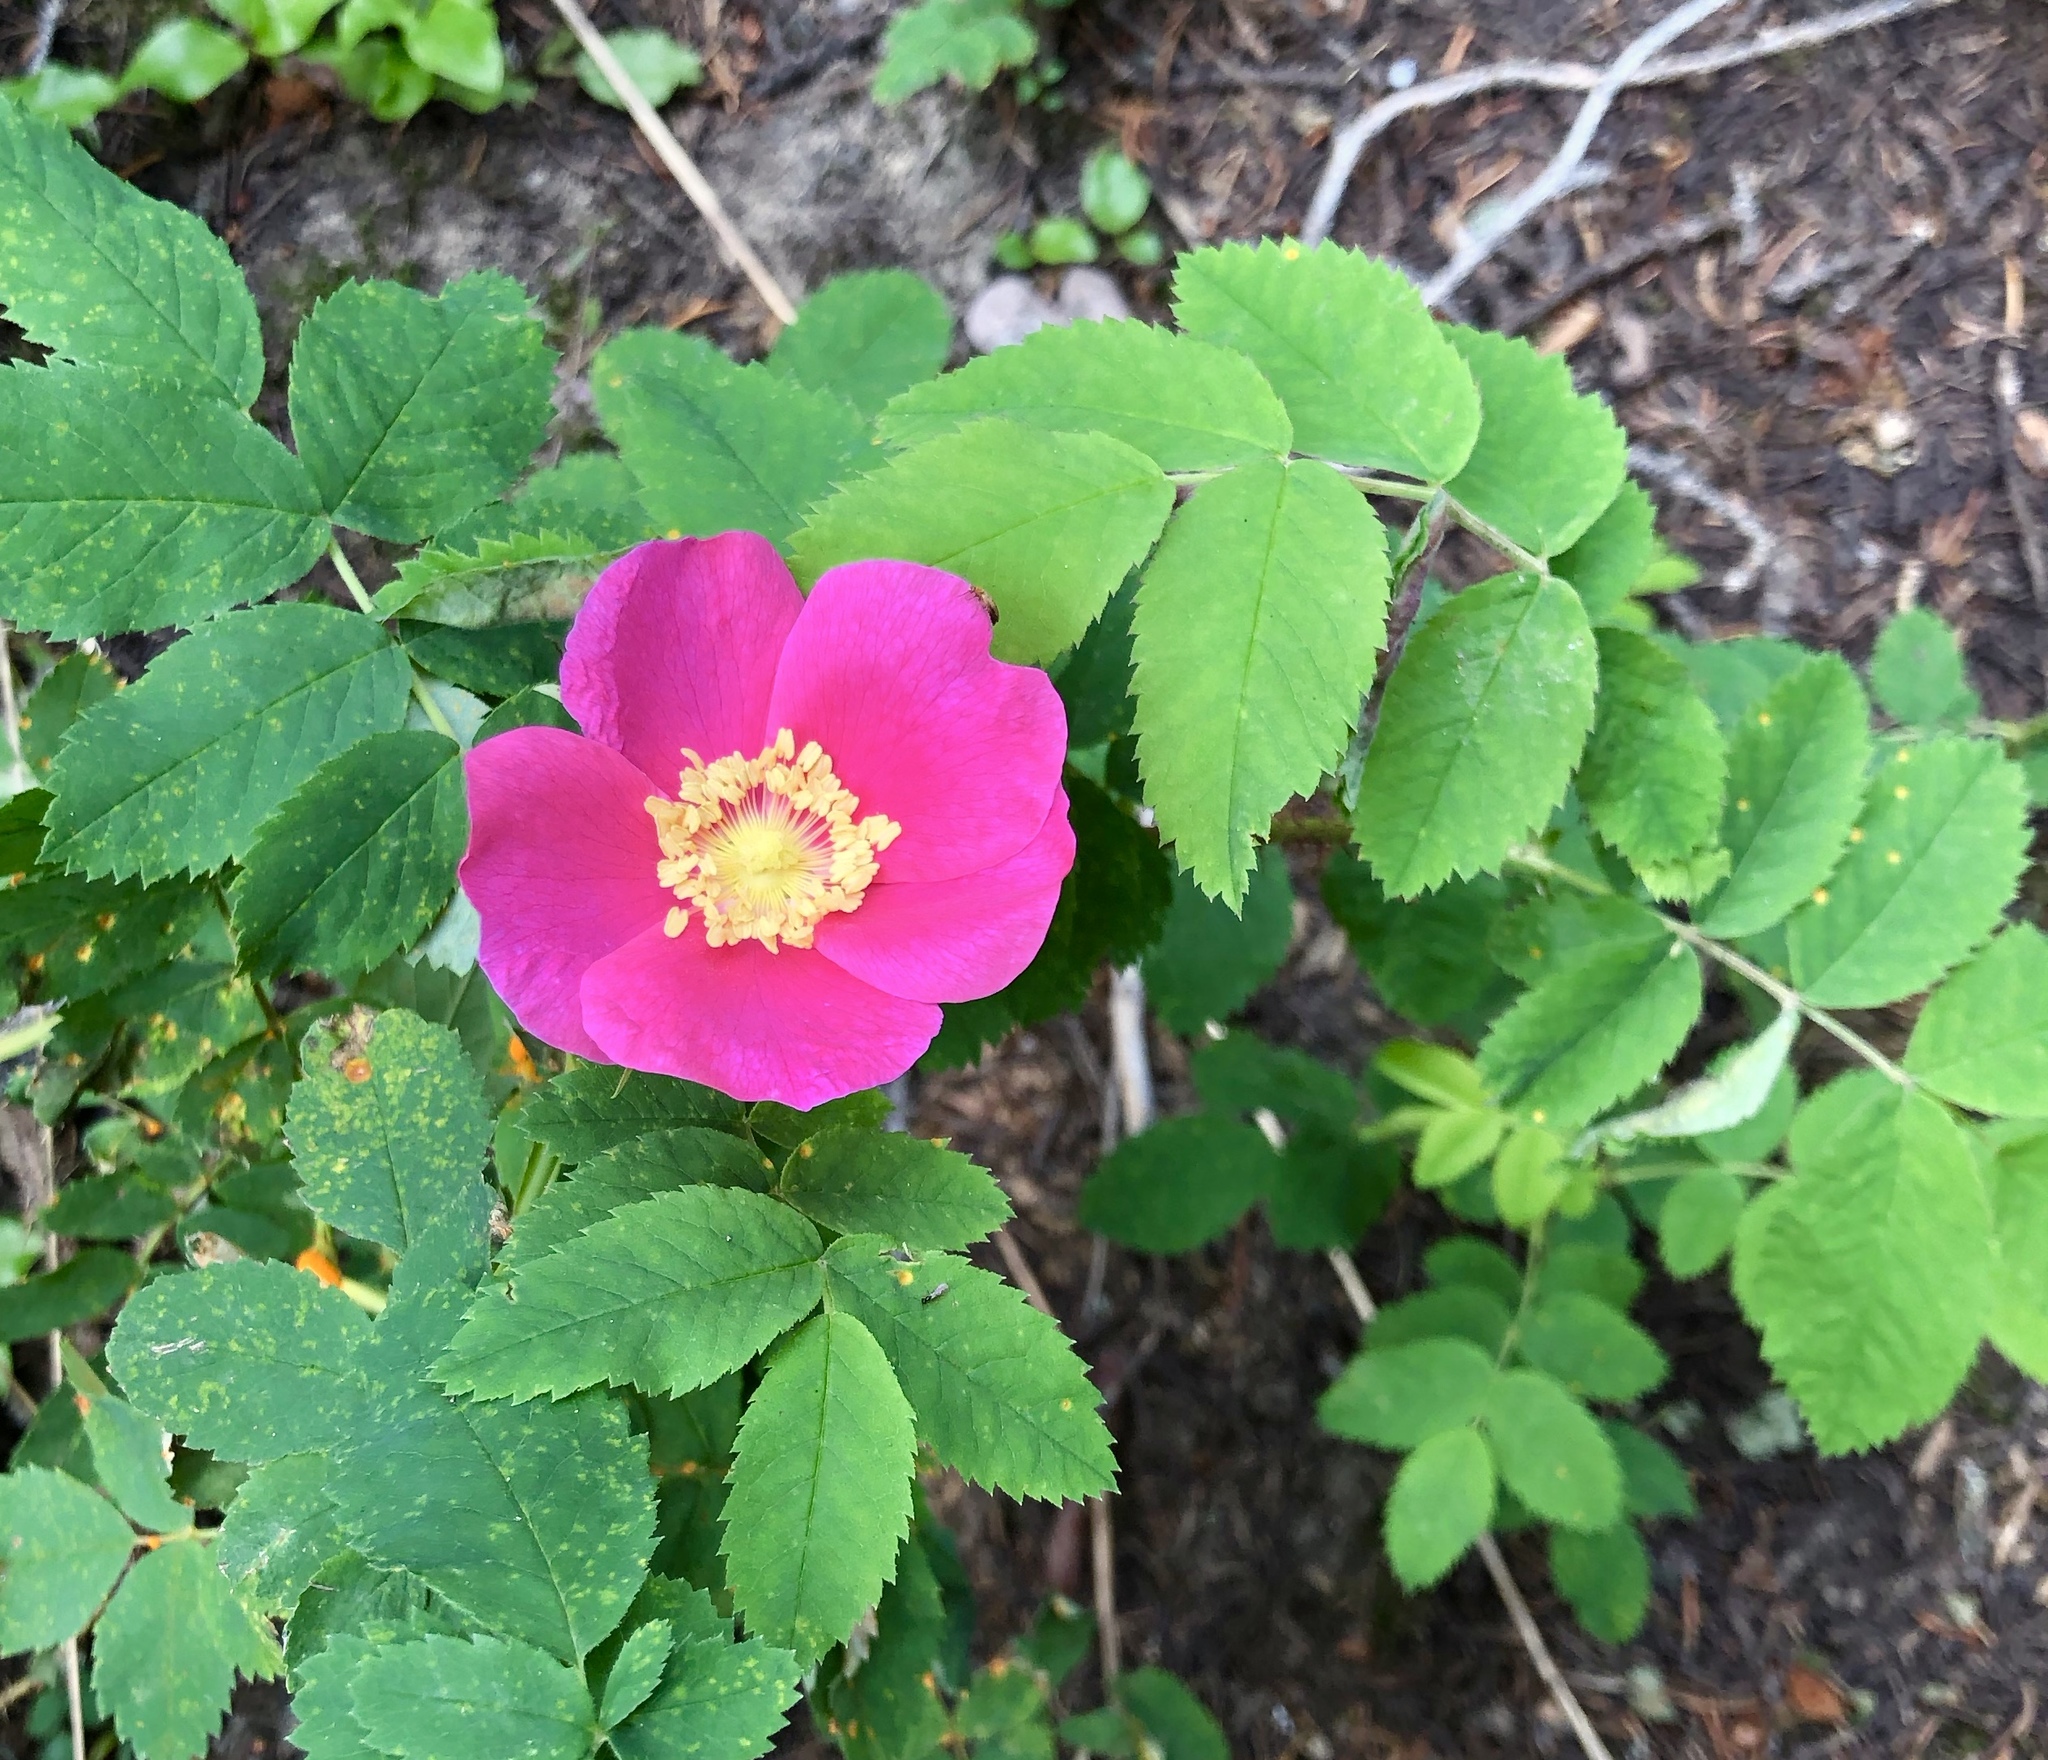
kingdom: Plantae
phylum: Tracheophyta
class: Magnoliopsida
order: Rosales
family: Rosaceae
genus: Rosa
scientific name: Rosa woodsii
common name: Woods's rose
